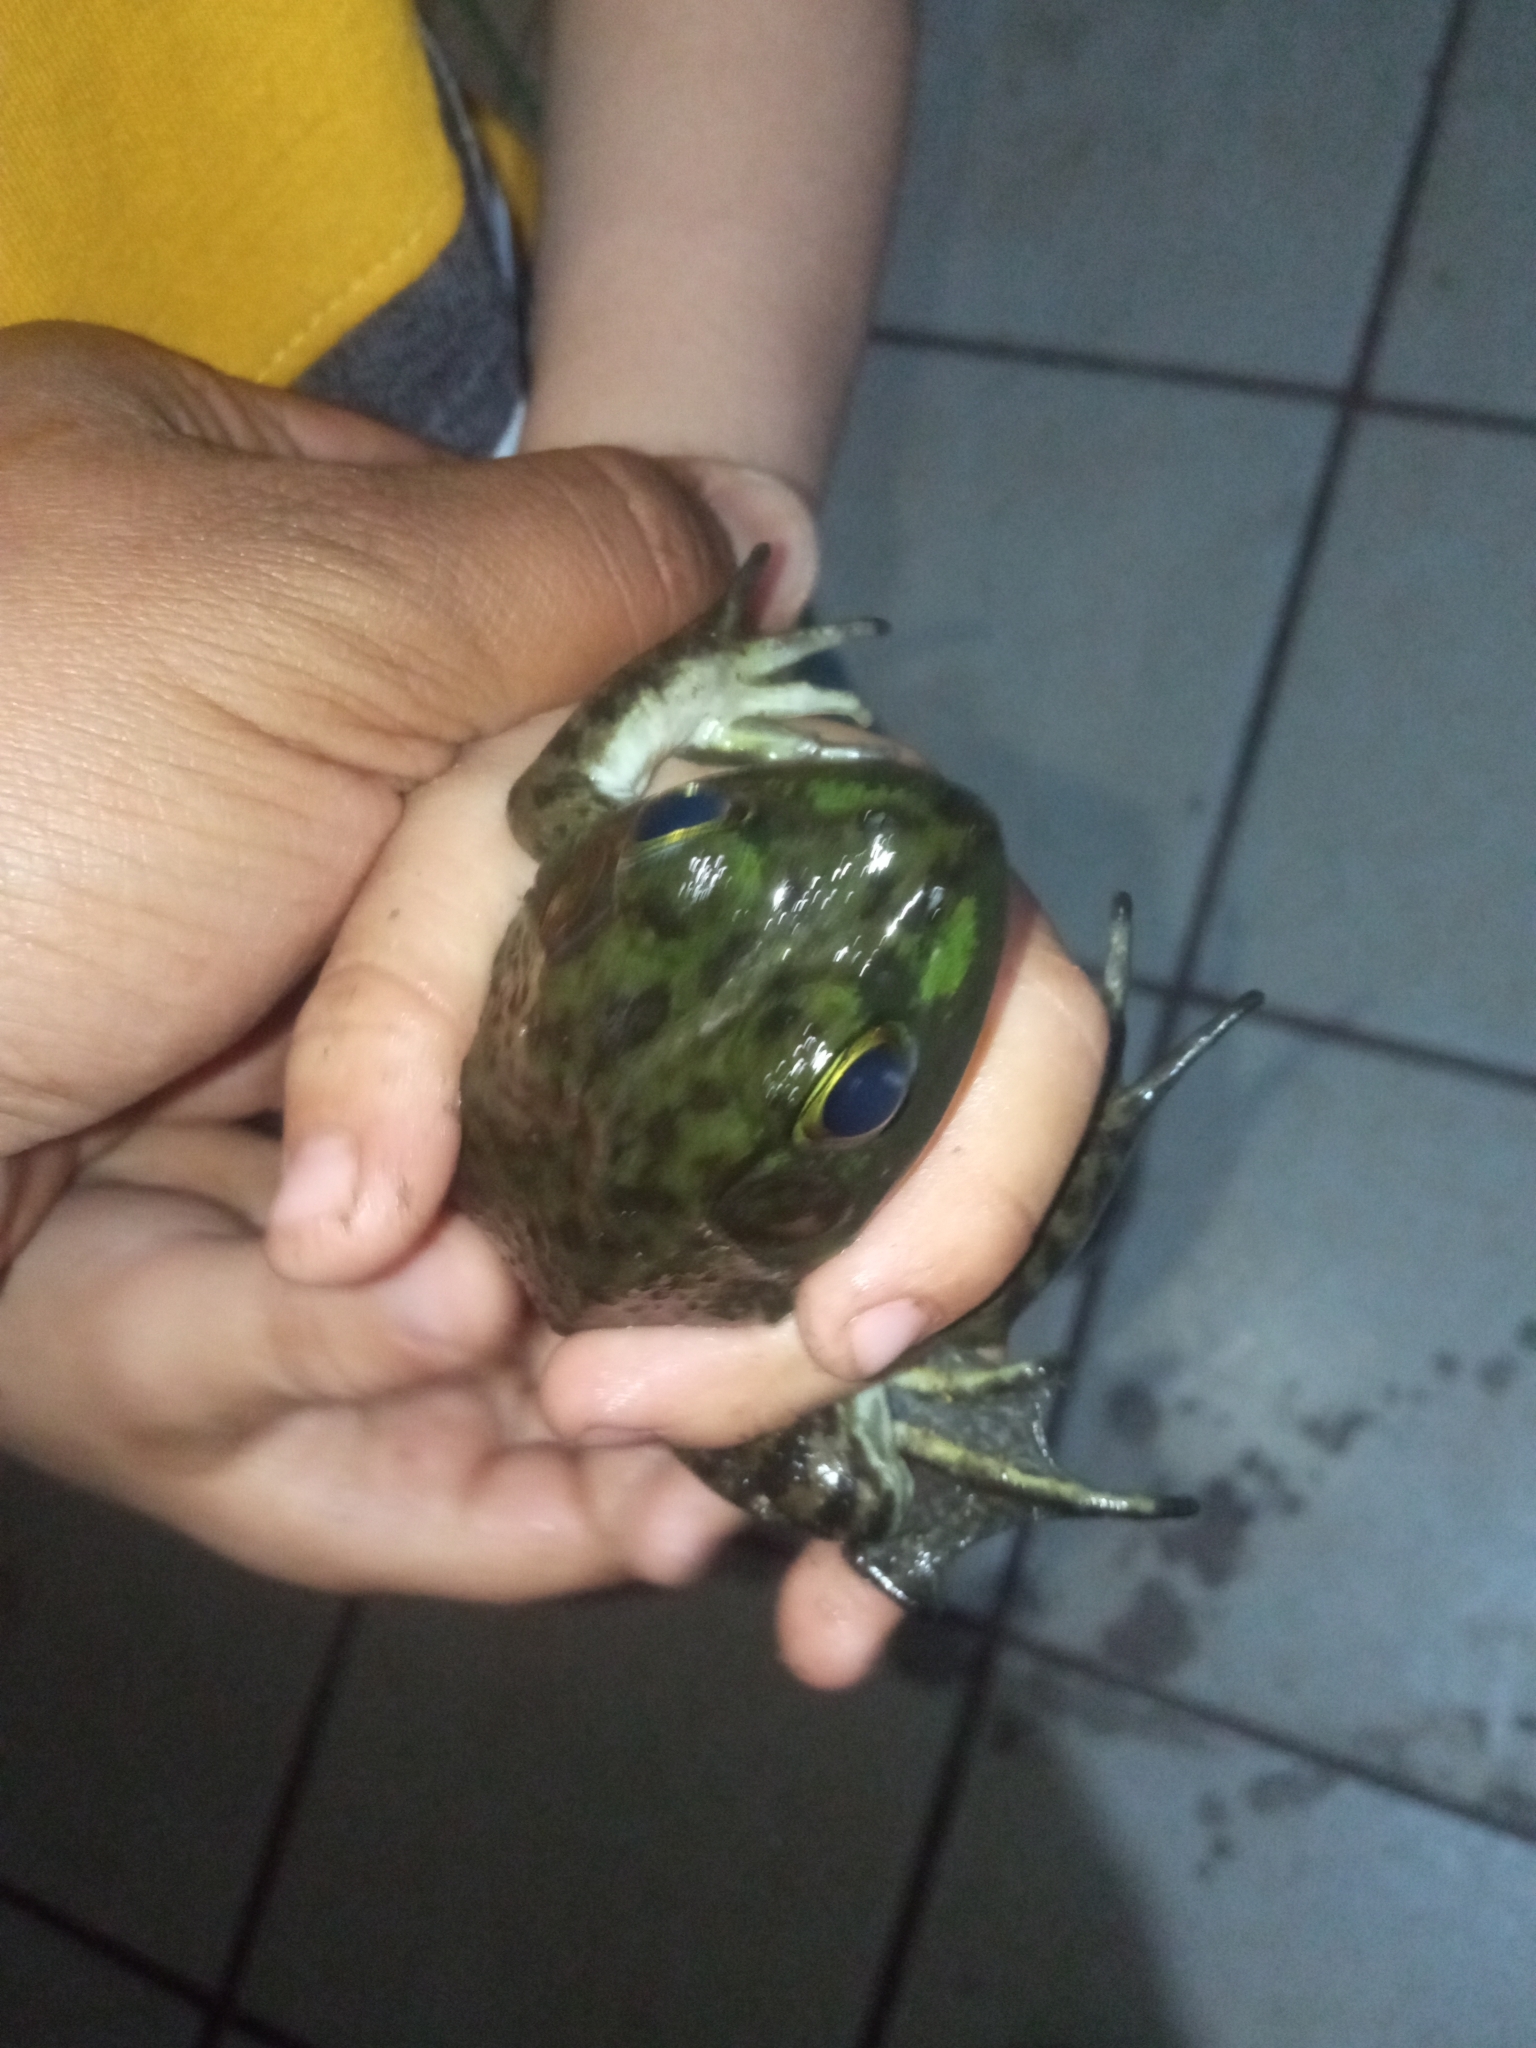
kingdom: Animalia
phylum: Chordata
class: Amphibia
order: Anura
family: Ranidae
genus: Lithobates
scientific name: Lithobates catesbeianus
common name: American bullfrog
